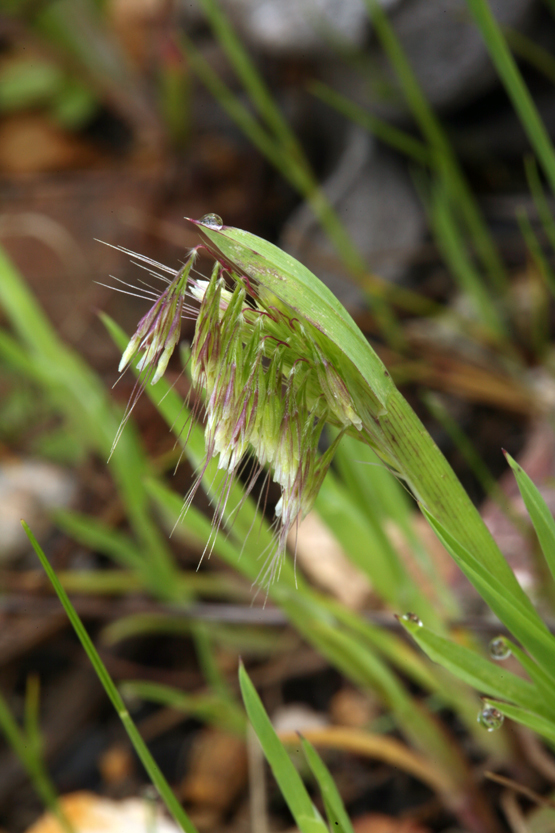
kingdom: Plantae
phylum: Tracheophyta
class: Liliopsida
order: Poales
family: Poaceae
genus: Lamarckia
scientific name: Lamarckia aurea
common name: Golden dog's-tail
